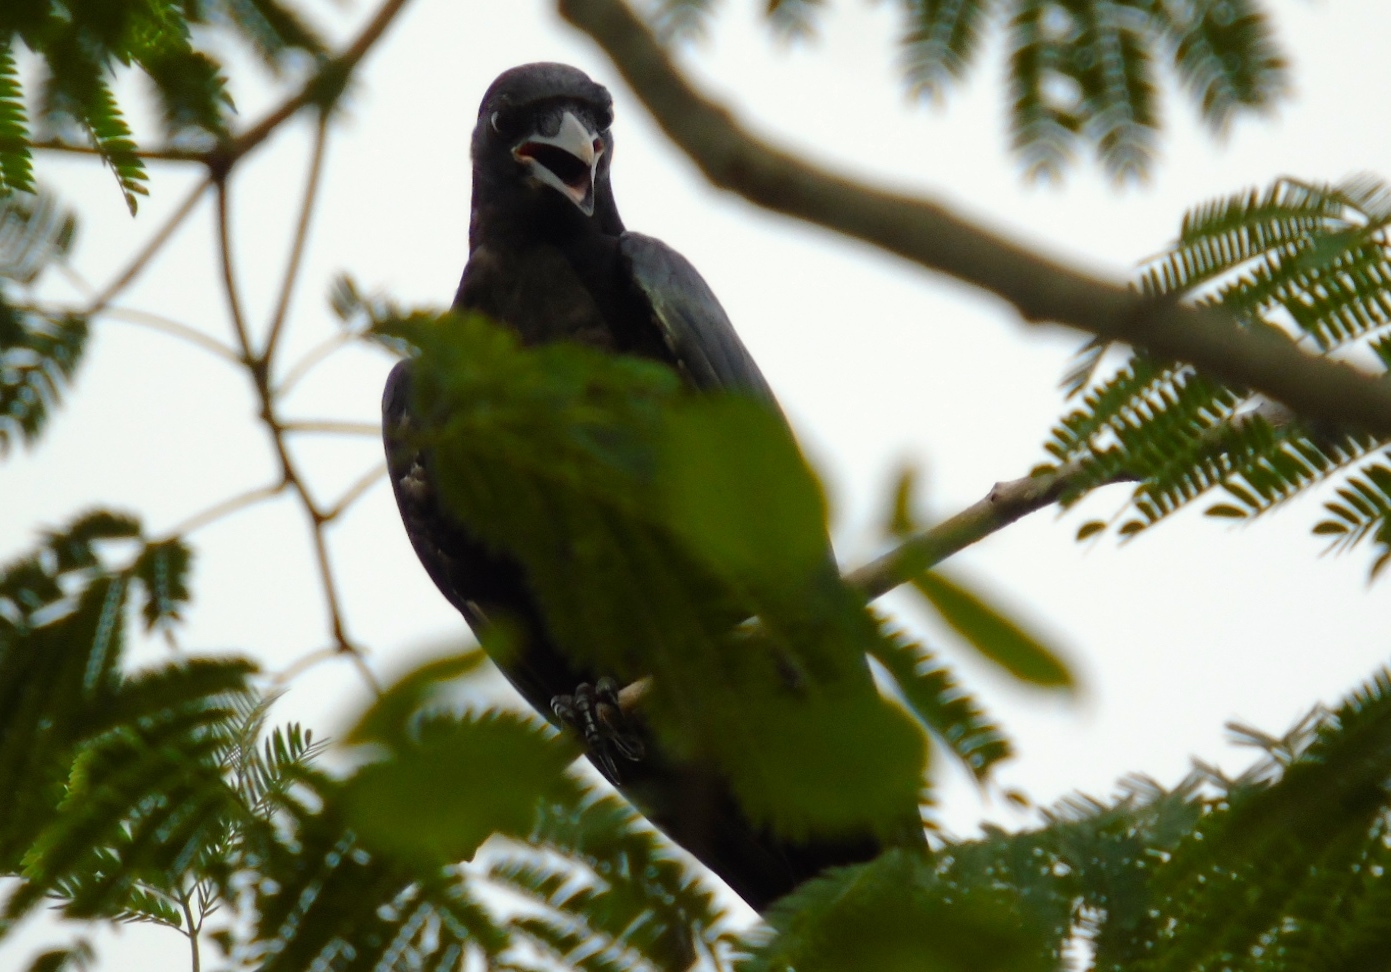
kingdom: Animalia
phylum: Chordata
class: Aves
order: Passeriformes
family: Corvidae
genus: Corvus
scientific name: Corvus sinaloae
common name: Sinaloa crow
